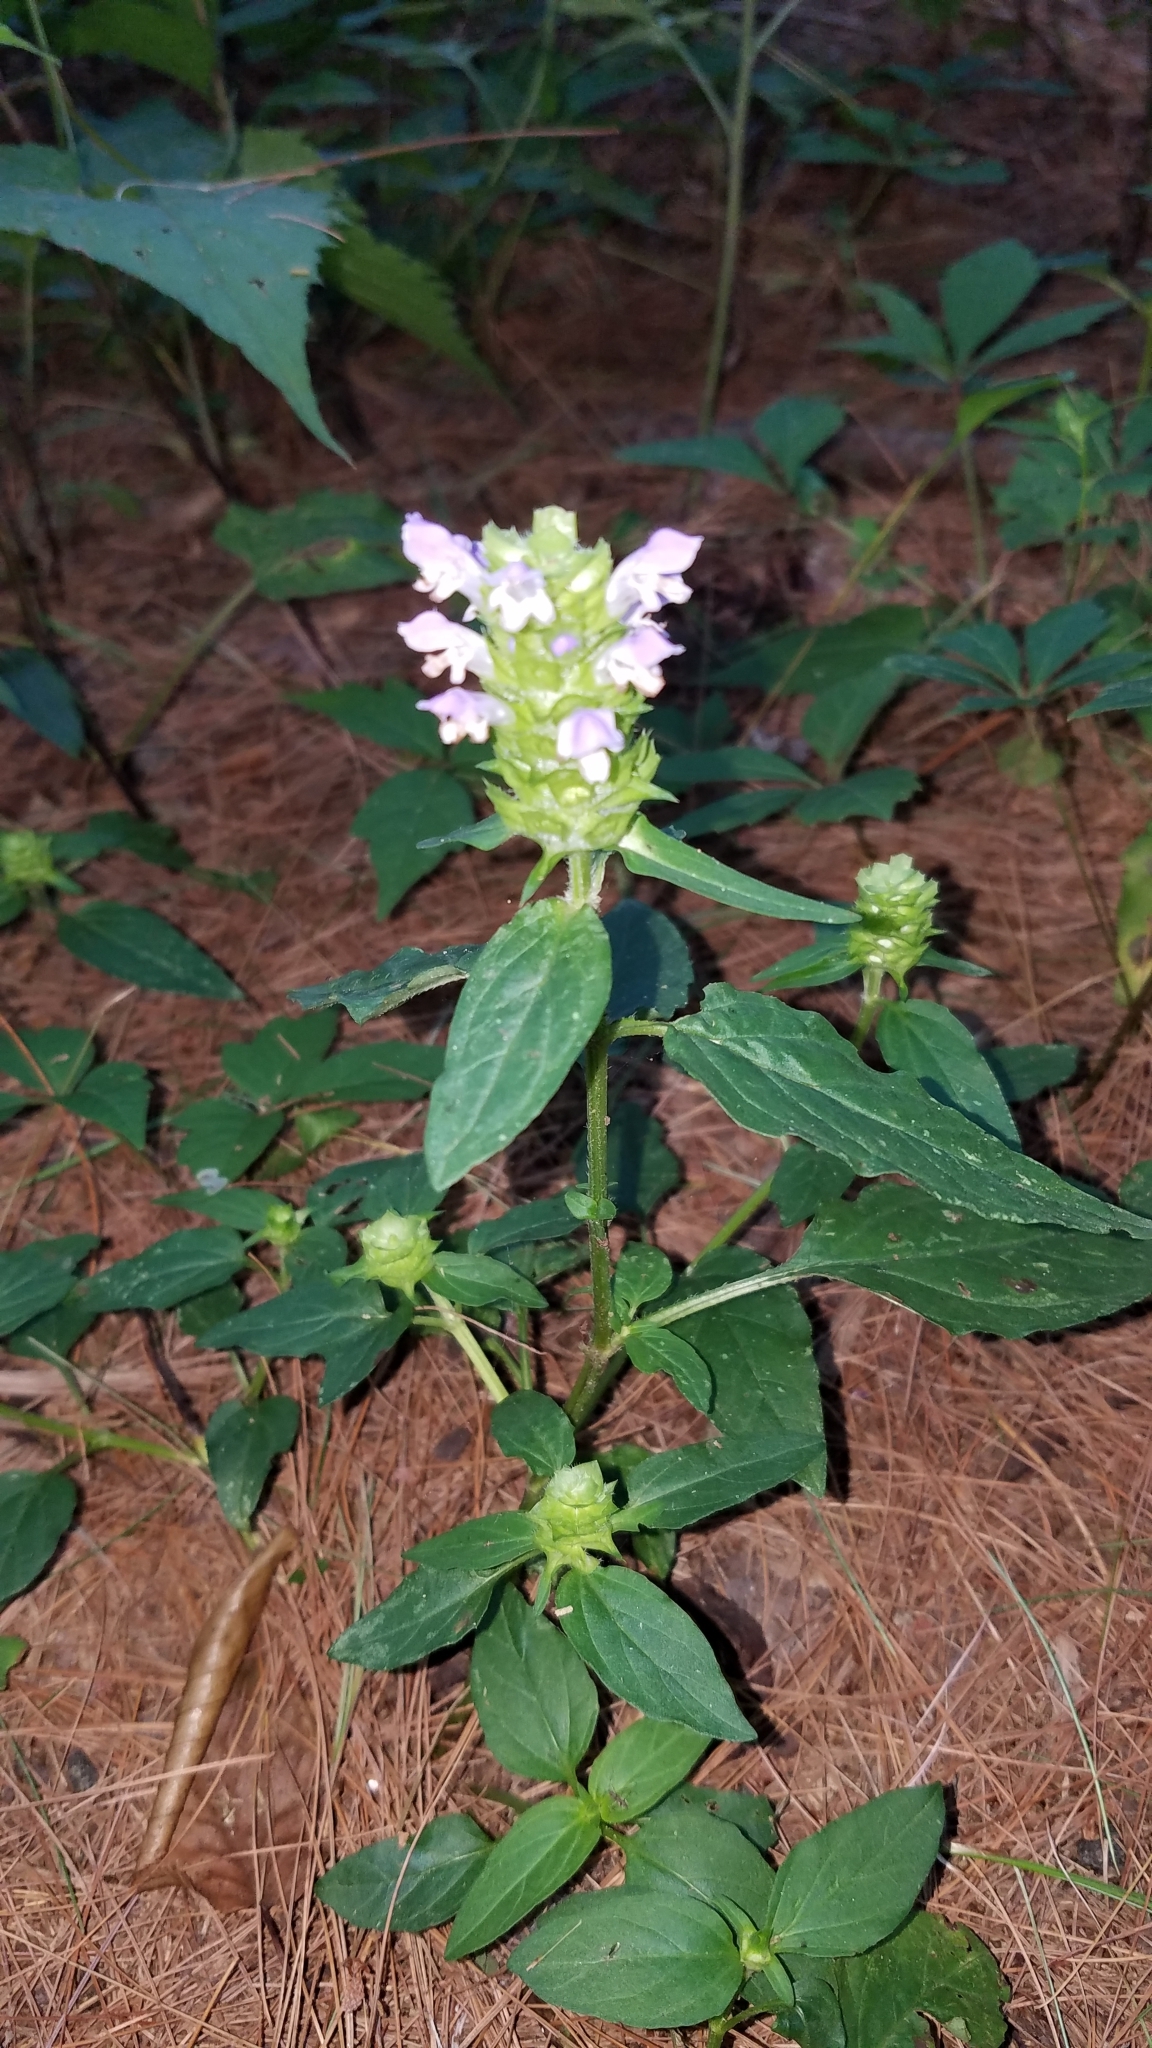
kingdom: Plantae
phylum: Tracheophyta
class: Magnoliopsida
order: Lamiales
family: Lamiaceae
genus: Prunella
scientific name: Prunella vulgaris
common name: Heal-all
